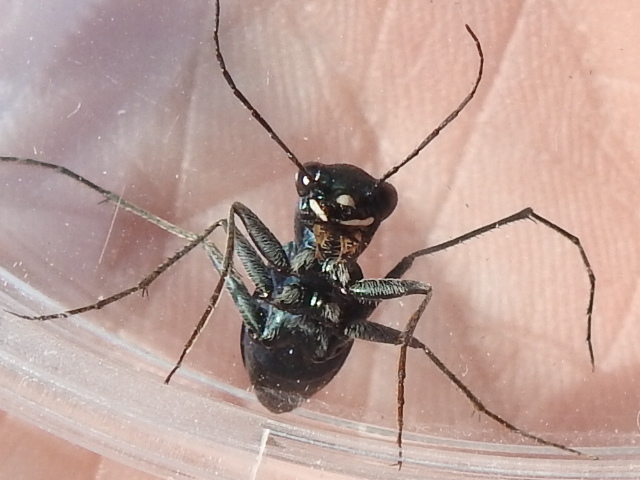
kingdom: Animalia
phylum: Arthropoda
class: Insecta
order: Coleoptera
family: Carabidae
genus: Dromochorus
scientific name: Dromochorus pruininus
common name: Frosted dromo tiger beetle
